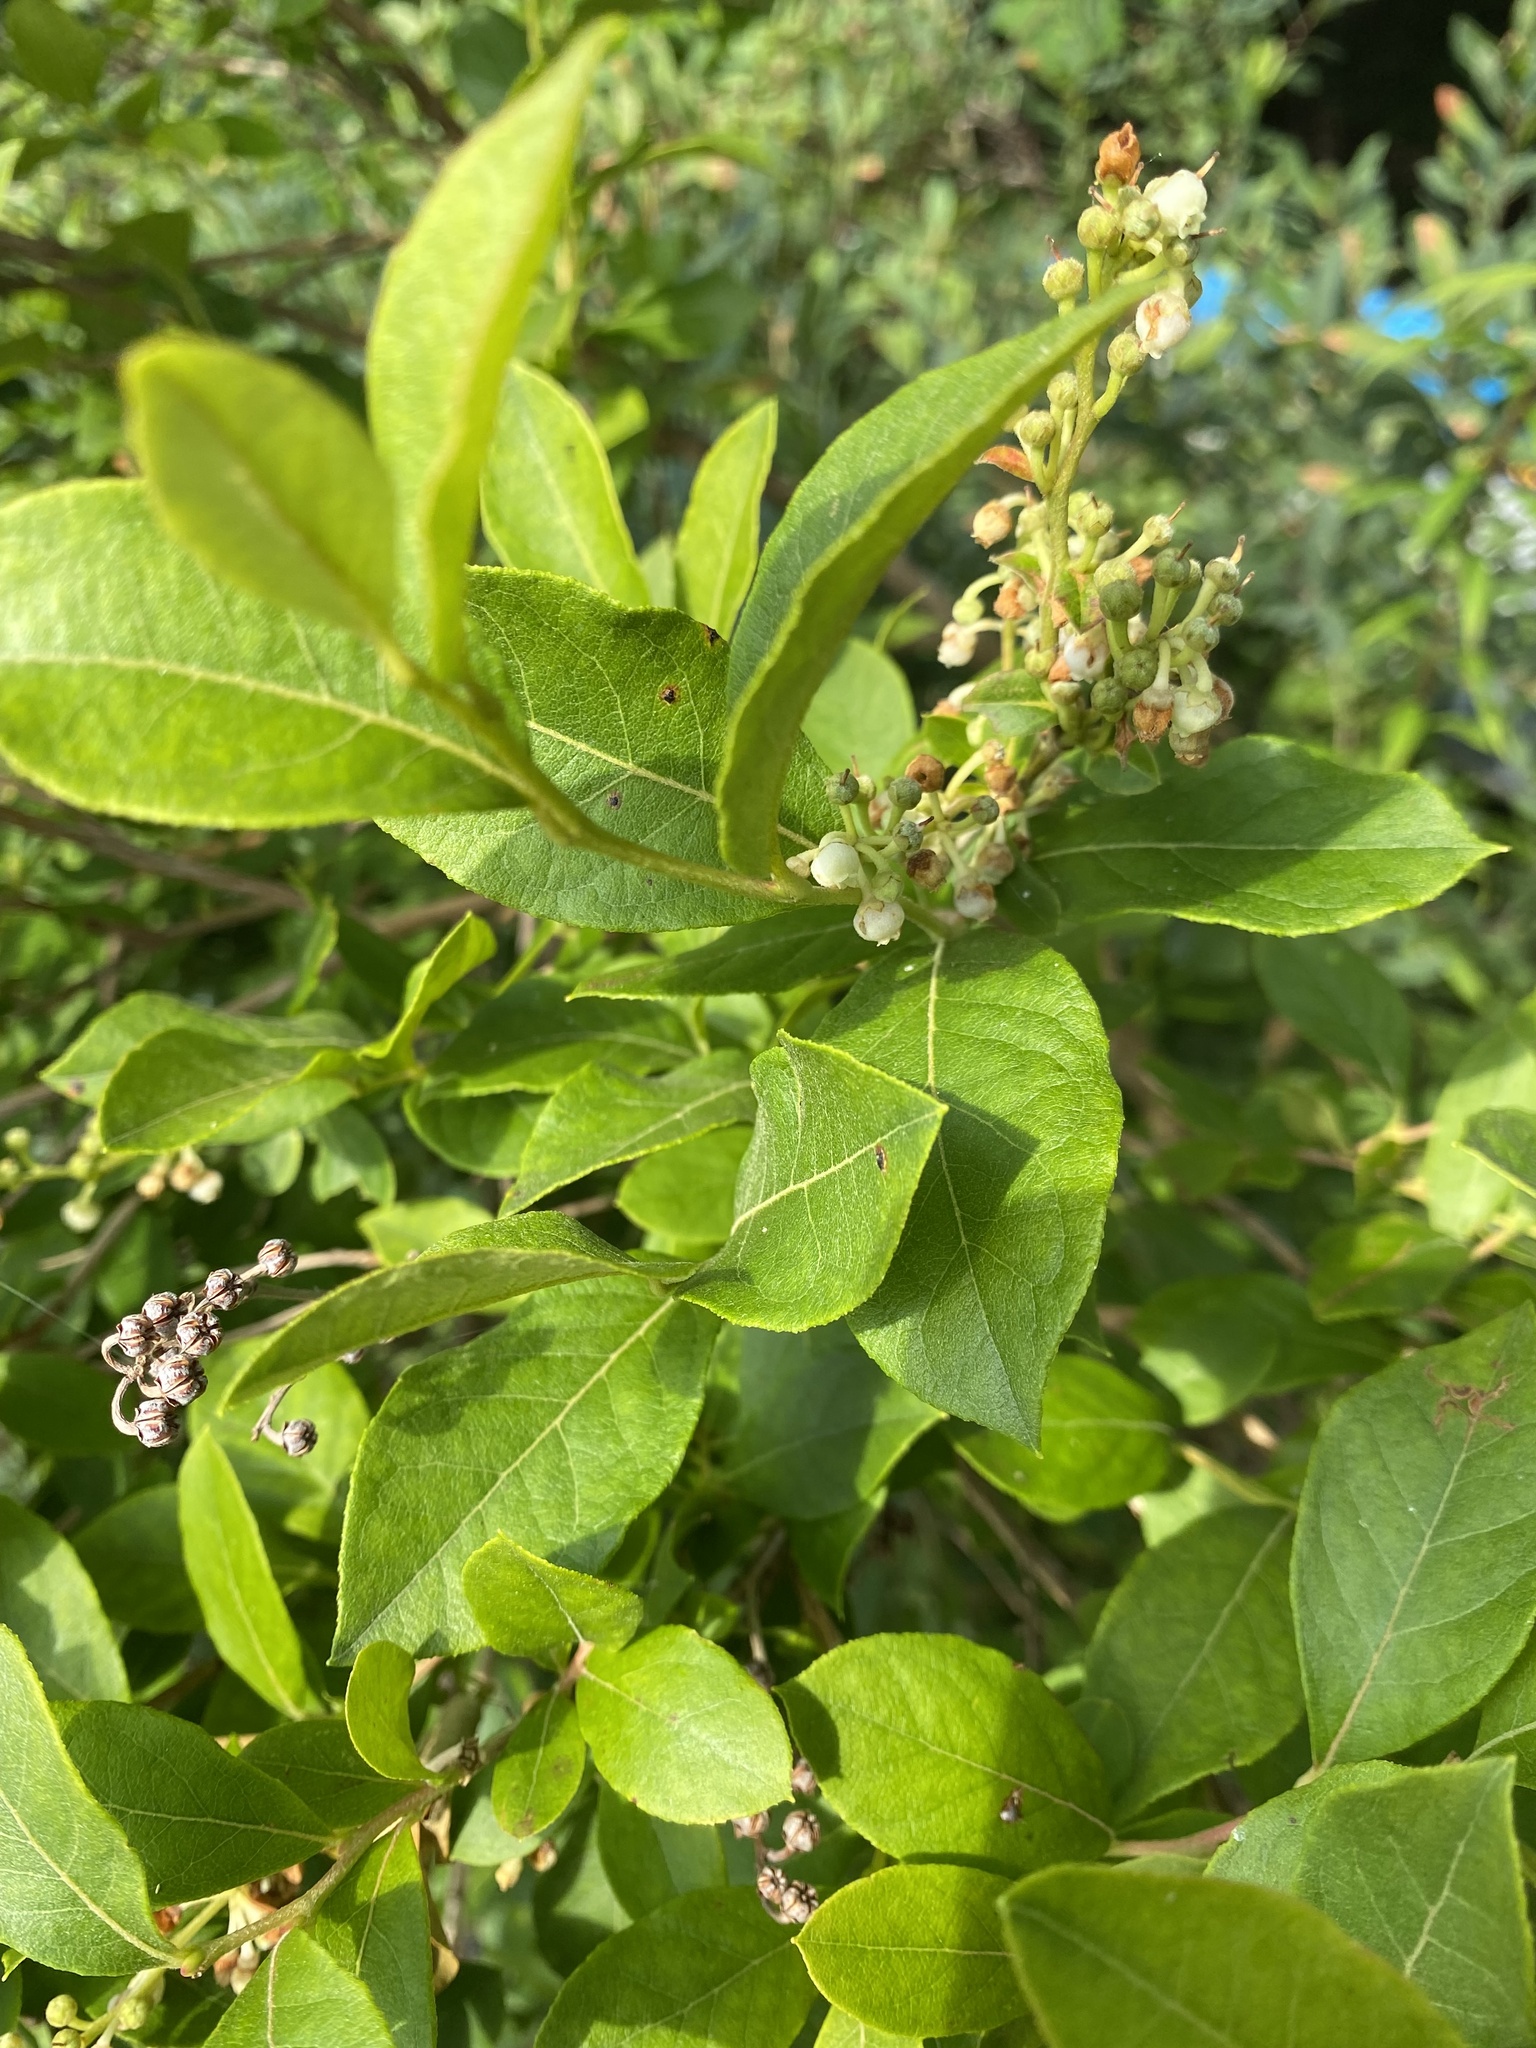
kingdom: Plantae
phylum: Tracheophyta
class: Magnoliopsida
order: Ericales
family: Ericaceae
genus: Lyonia
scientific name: Lyonia ligustrina
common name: Maleberry
